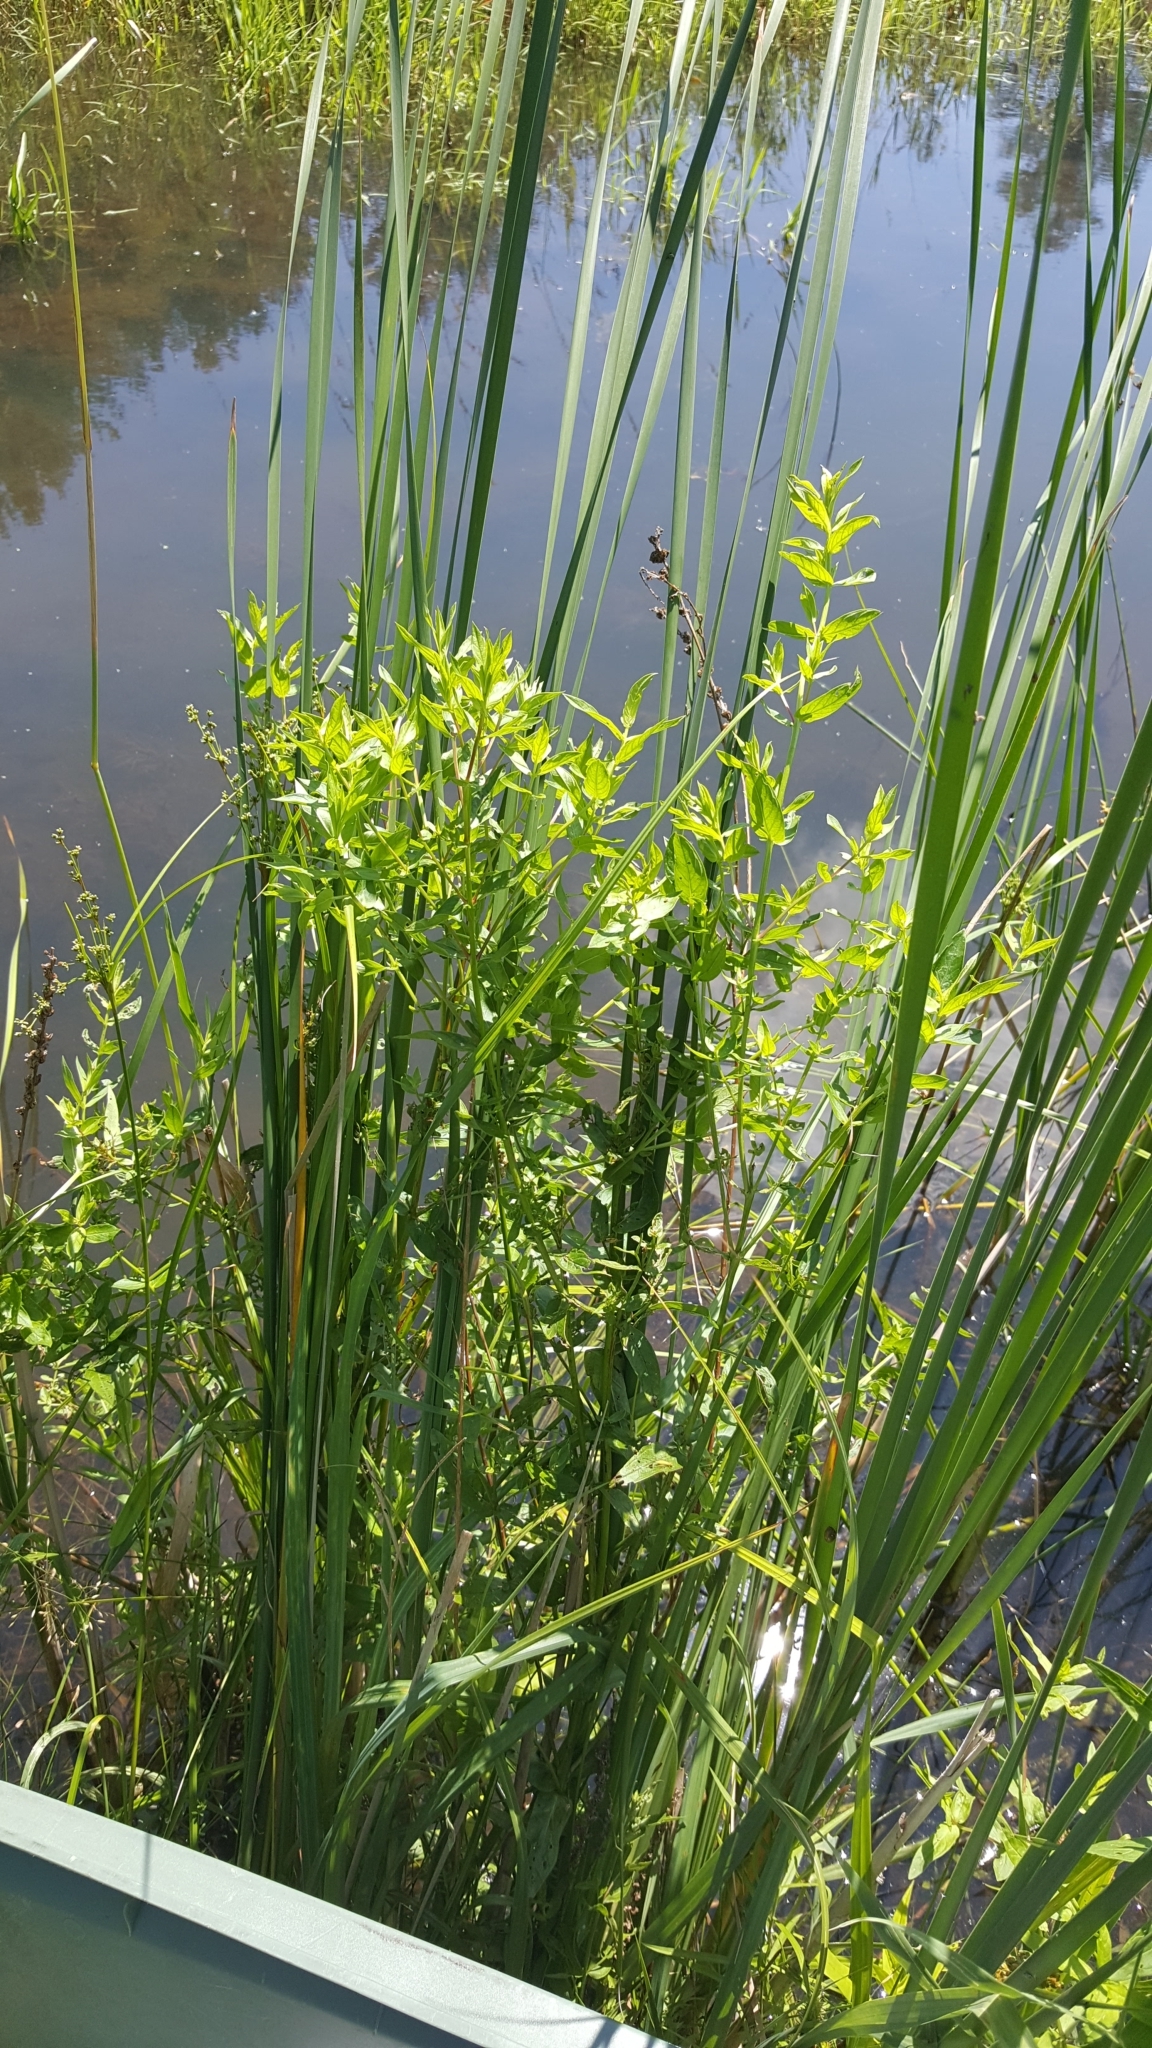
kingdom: Plantae
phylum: Tracheophyta
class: Magnoliopsida
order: Myrtales
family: Lythraceae
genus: Lythrum
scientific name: Lythrum salicaria
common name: Purple loosestrife
